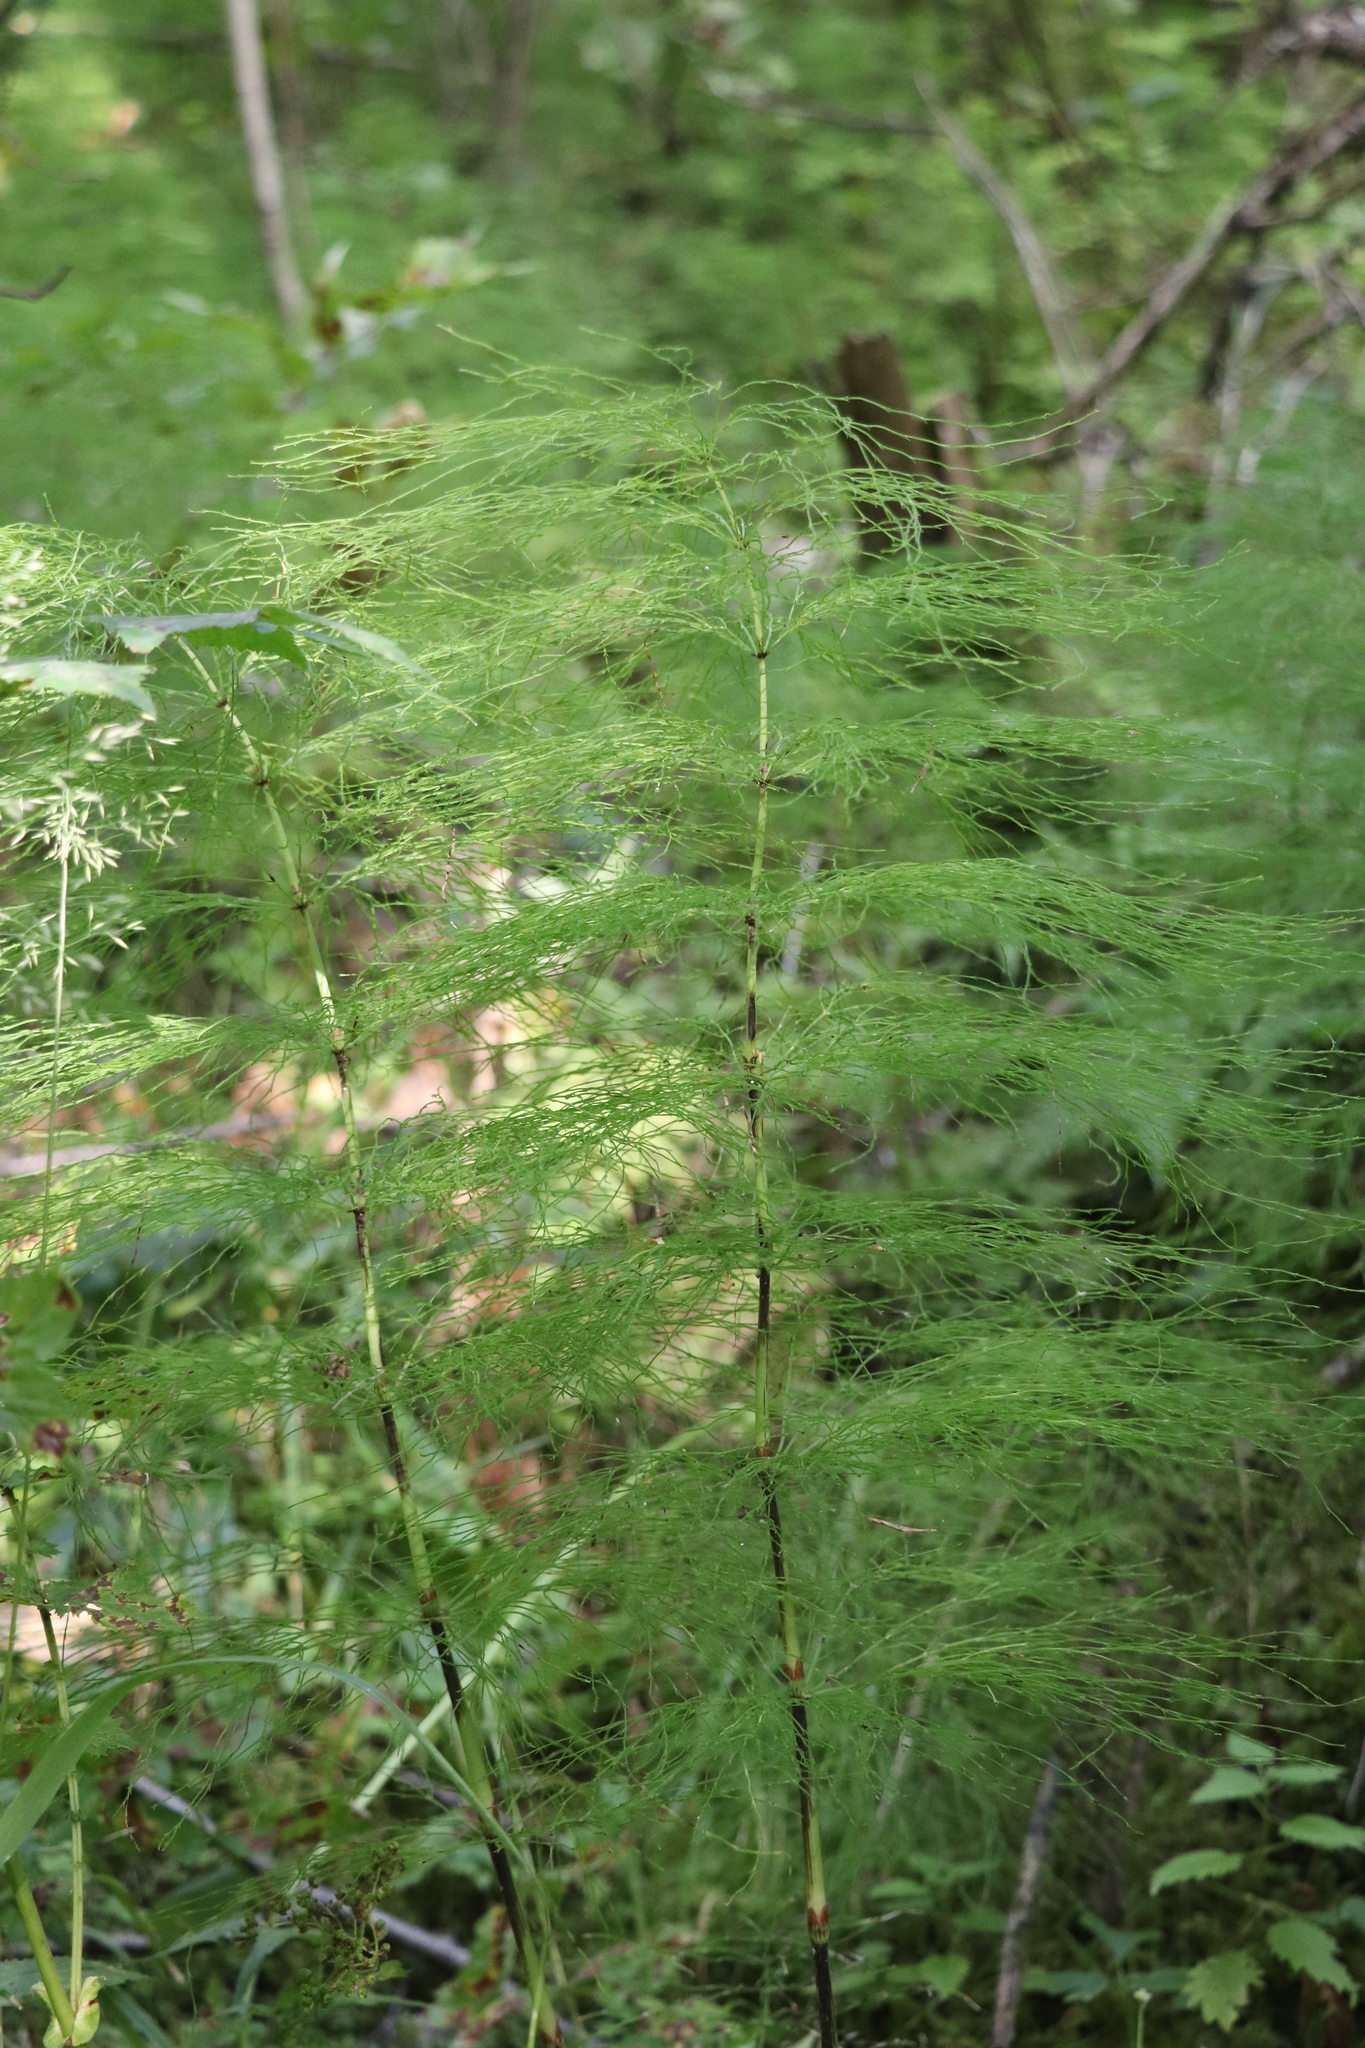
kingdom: Plantae
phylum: Tracheophyta
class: Polypodiopsida
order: Equisetales
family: Equisetaceae
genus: Equisetum
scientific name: Equisetum sylvaticum
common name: Wood horsetail
